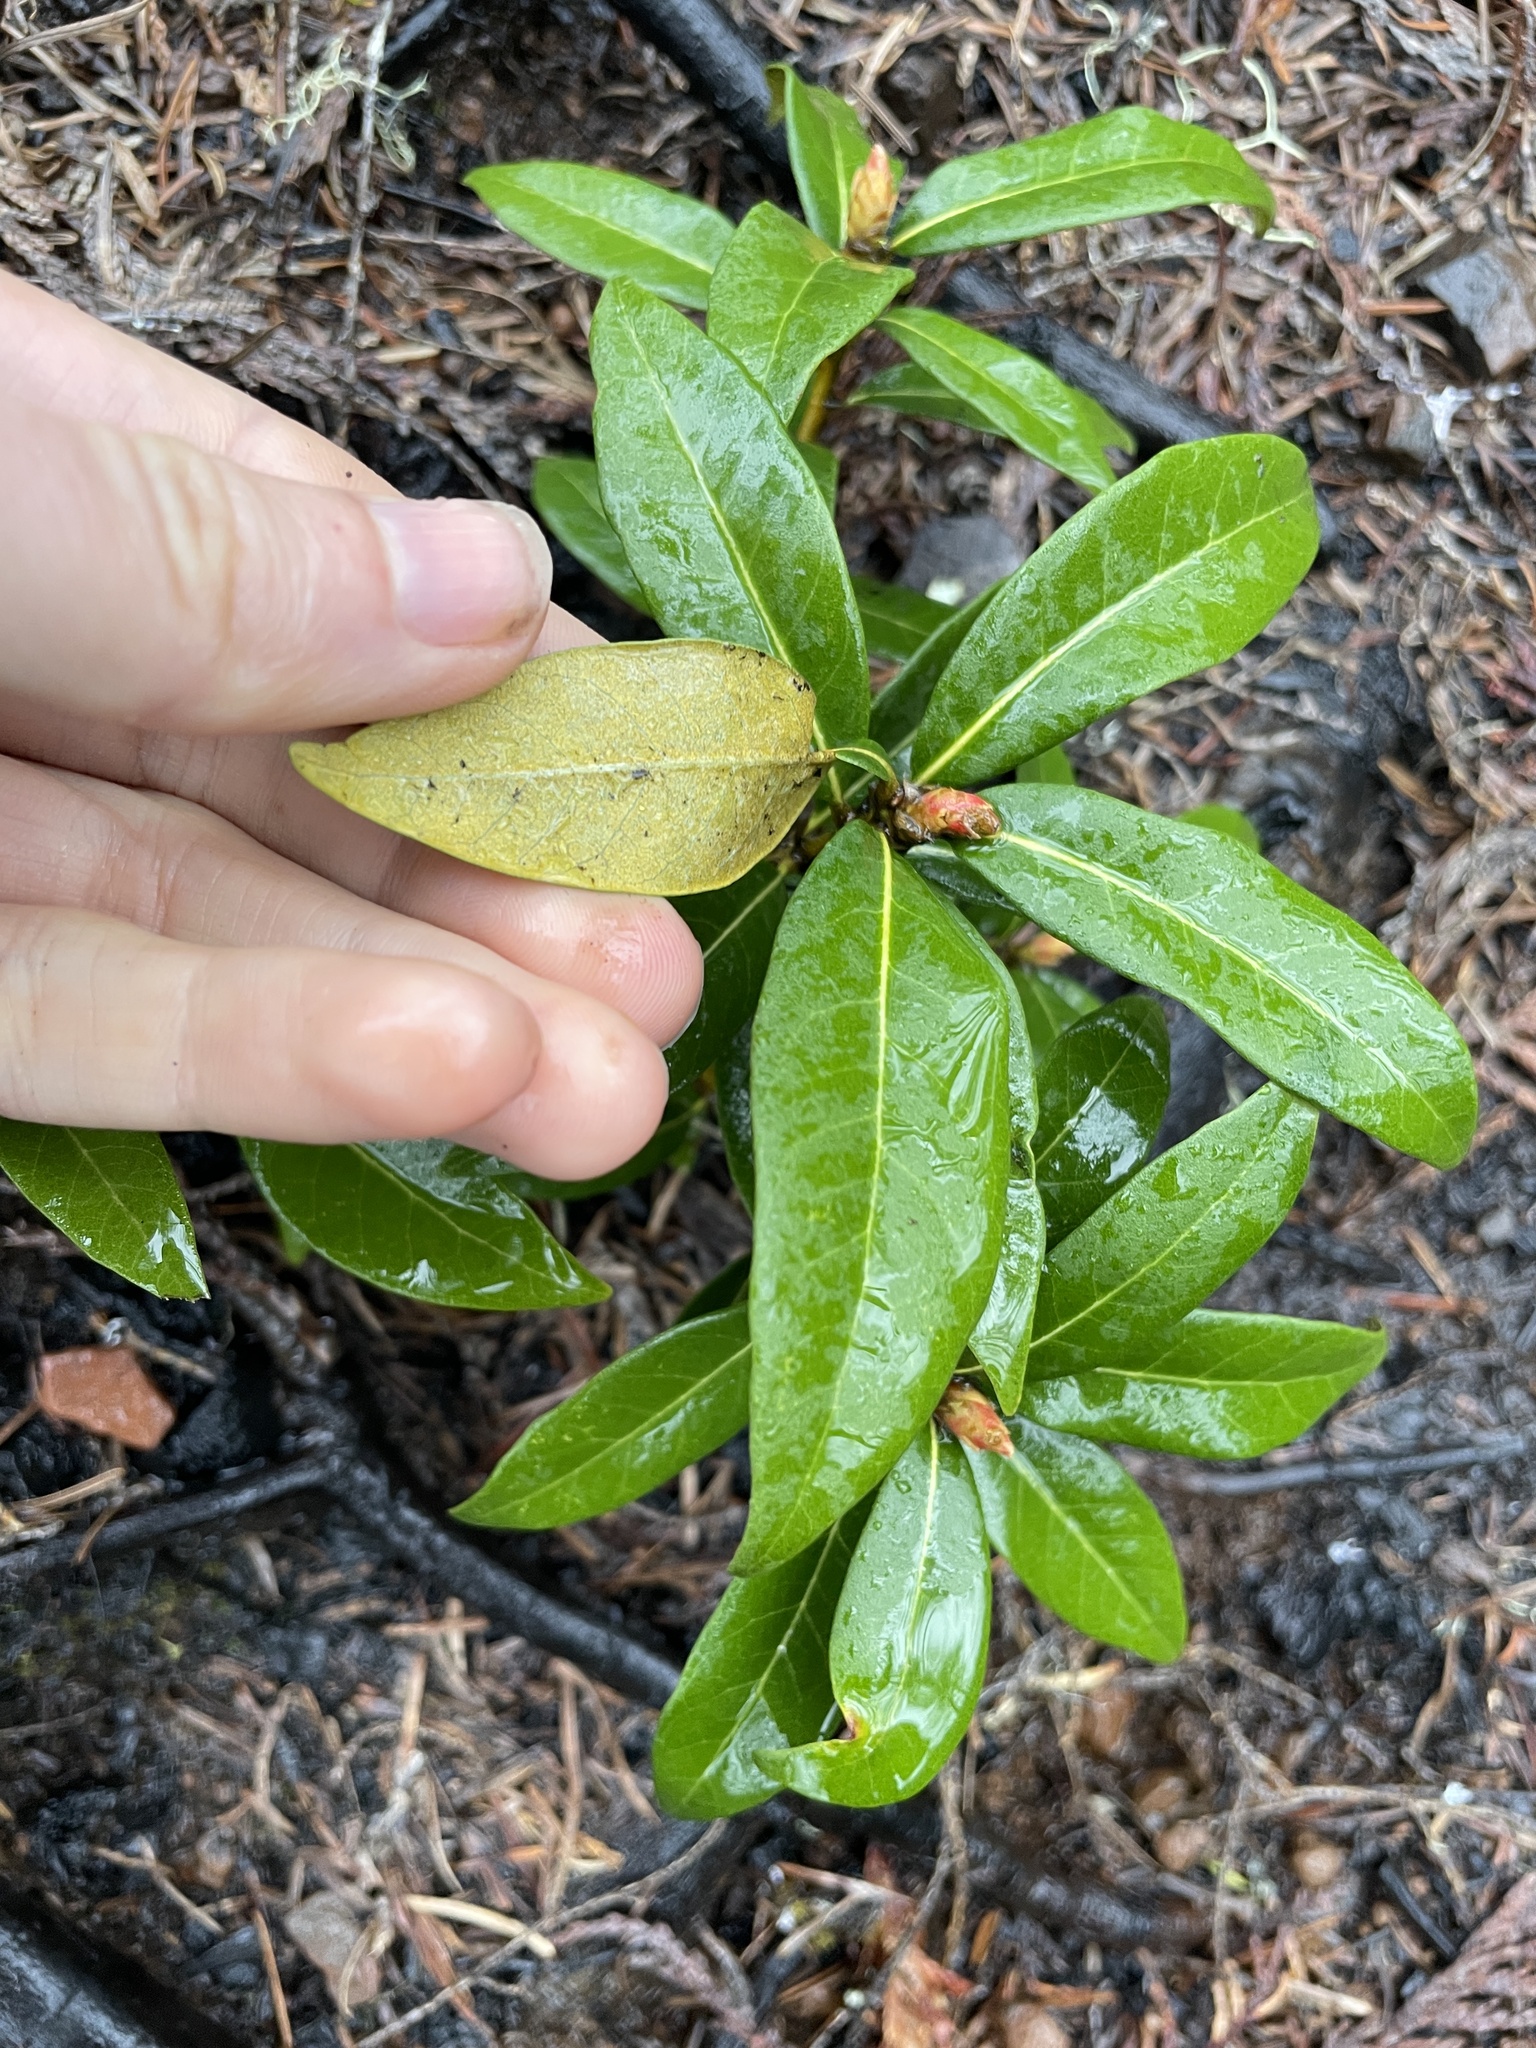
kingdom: Plantae
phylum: Tracheophyta
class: Magnoliopsida
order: Fagales
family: Fagaceae
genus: Chrysolepis
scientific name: Chrysolepis chrysophylla
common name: Giant chinquapin
